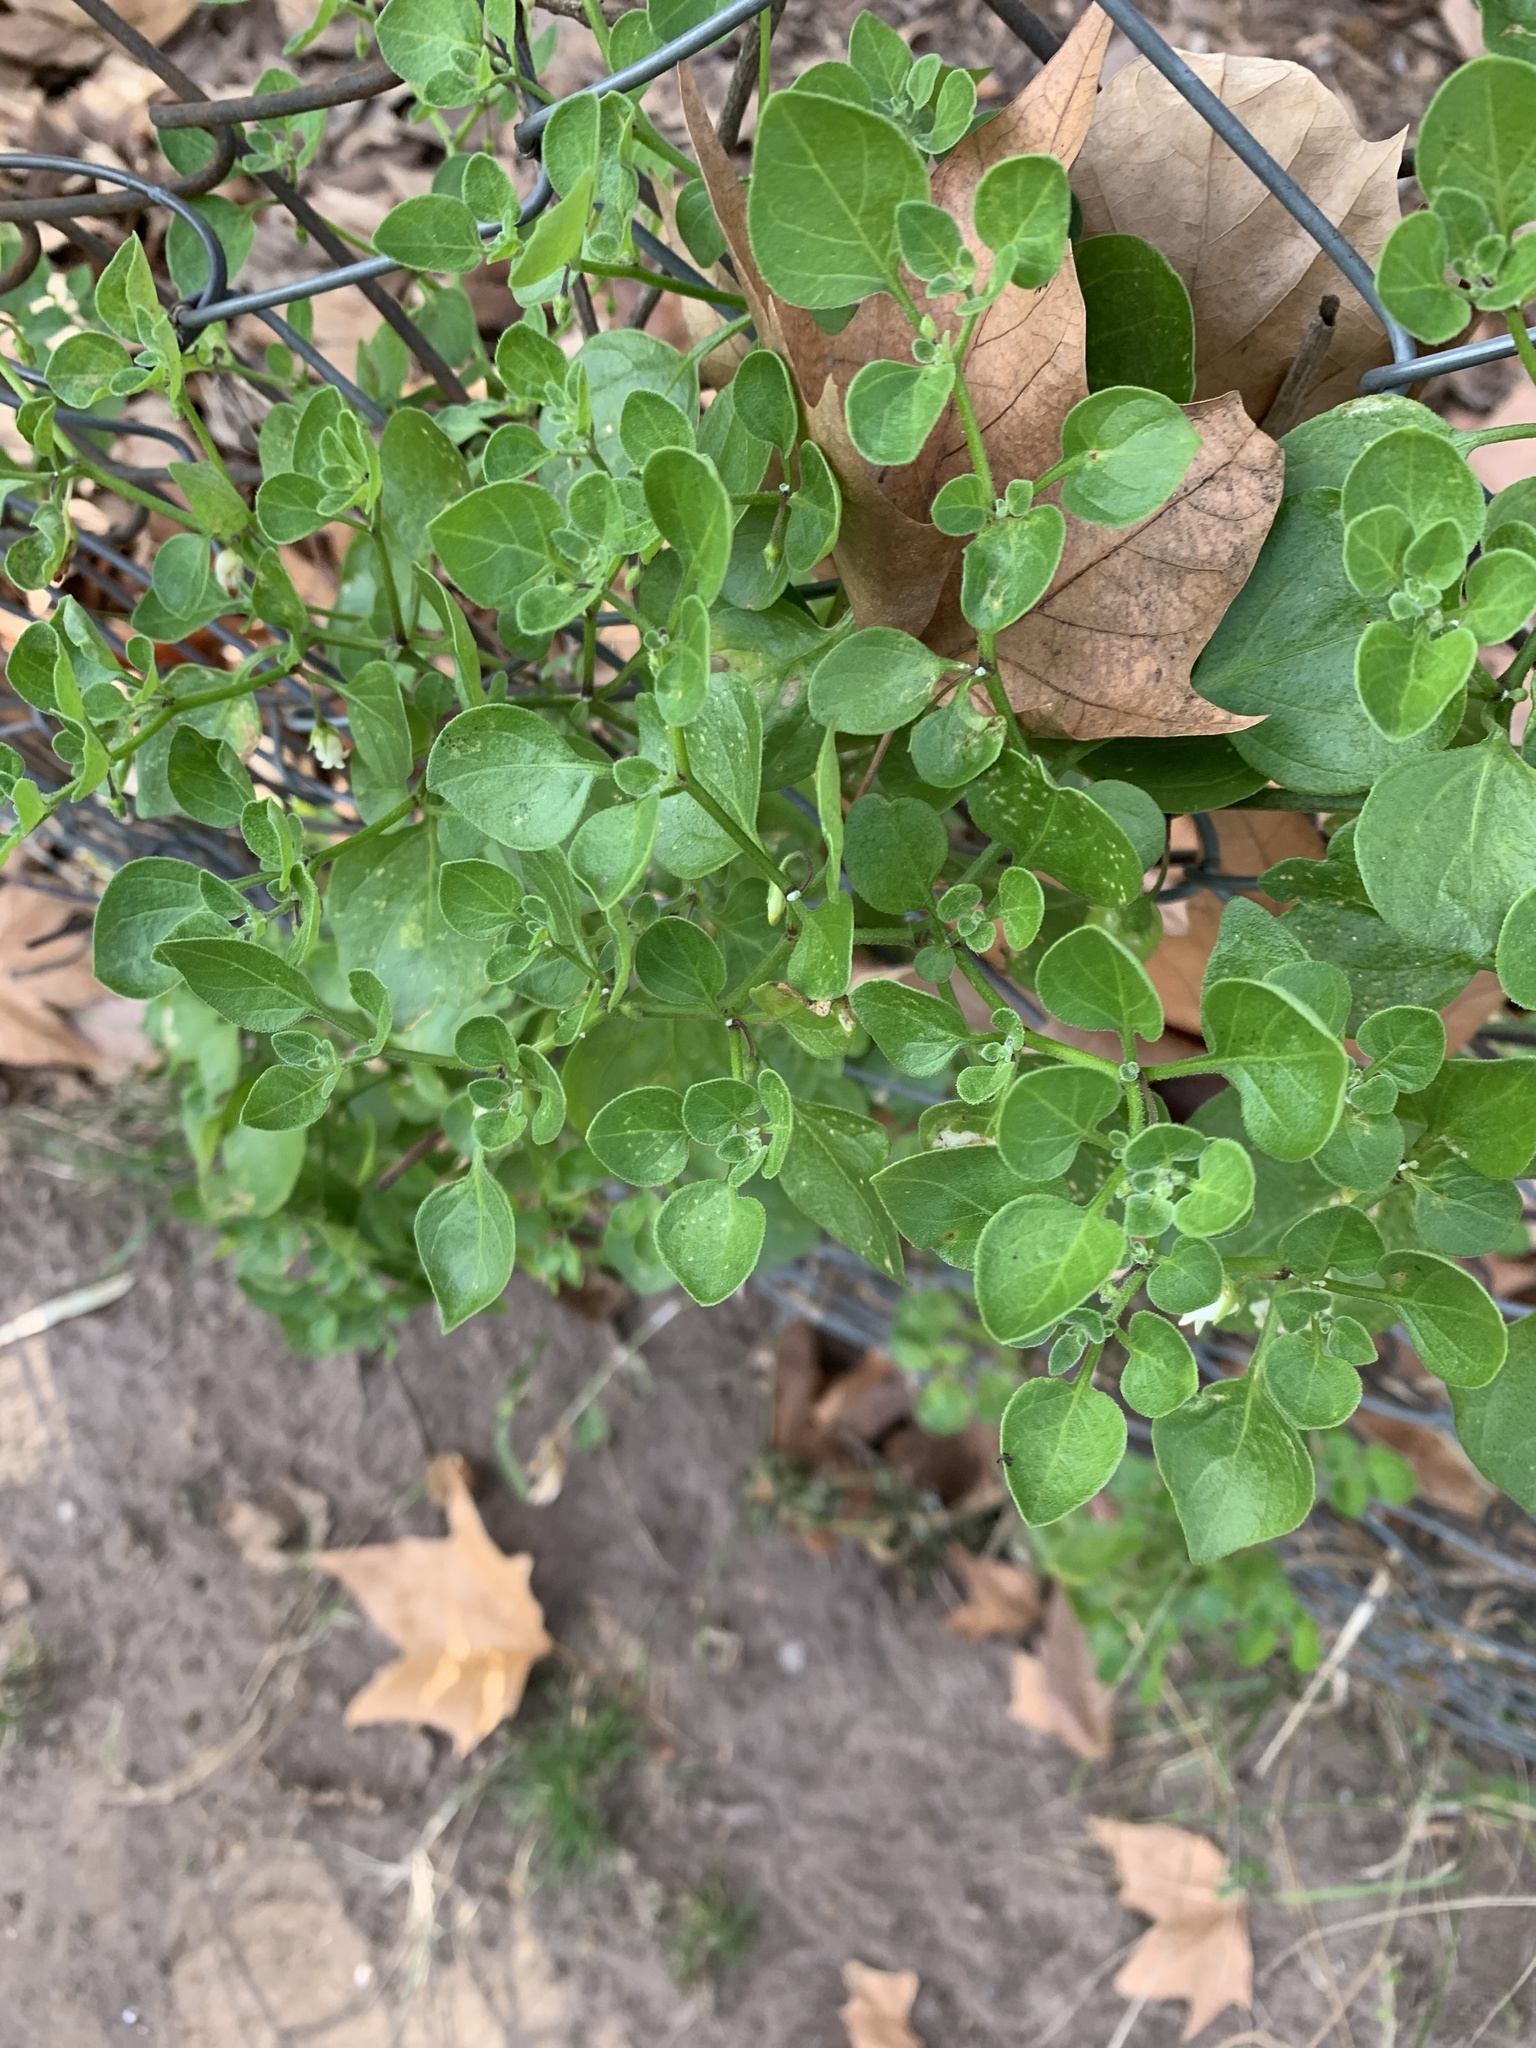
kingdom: Plantae
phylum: Tracheophyta
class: Magnoliopsida
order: Solanales
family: Solanaceae
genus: Salpichroa
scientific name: Salpichroa origanifolia
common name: Lily-of-the-valley-vine
